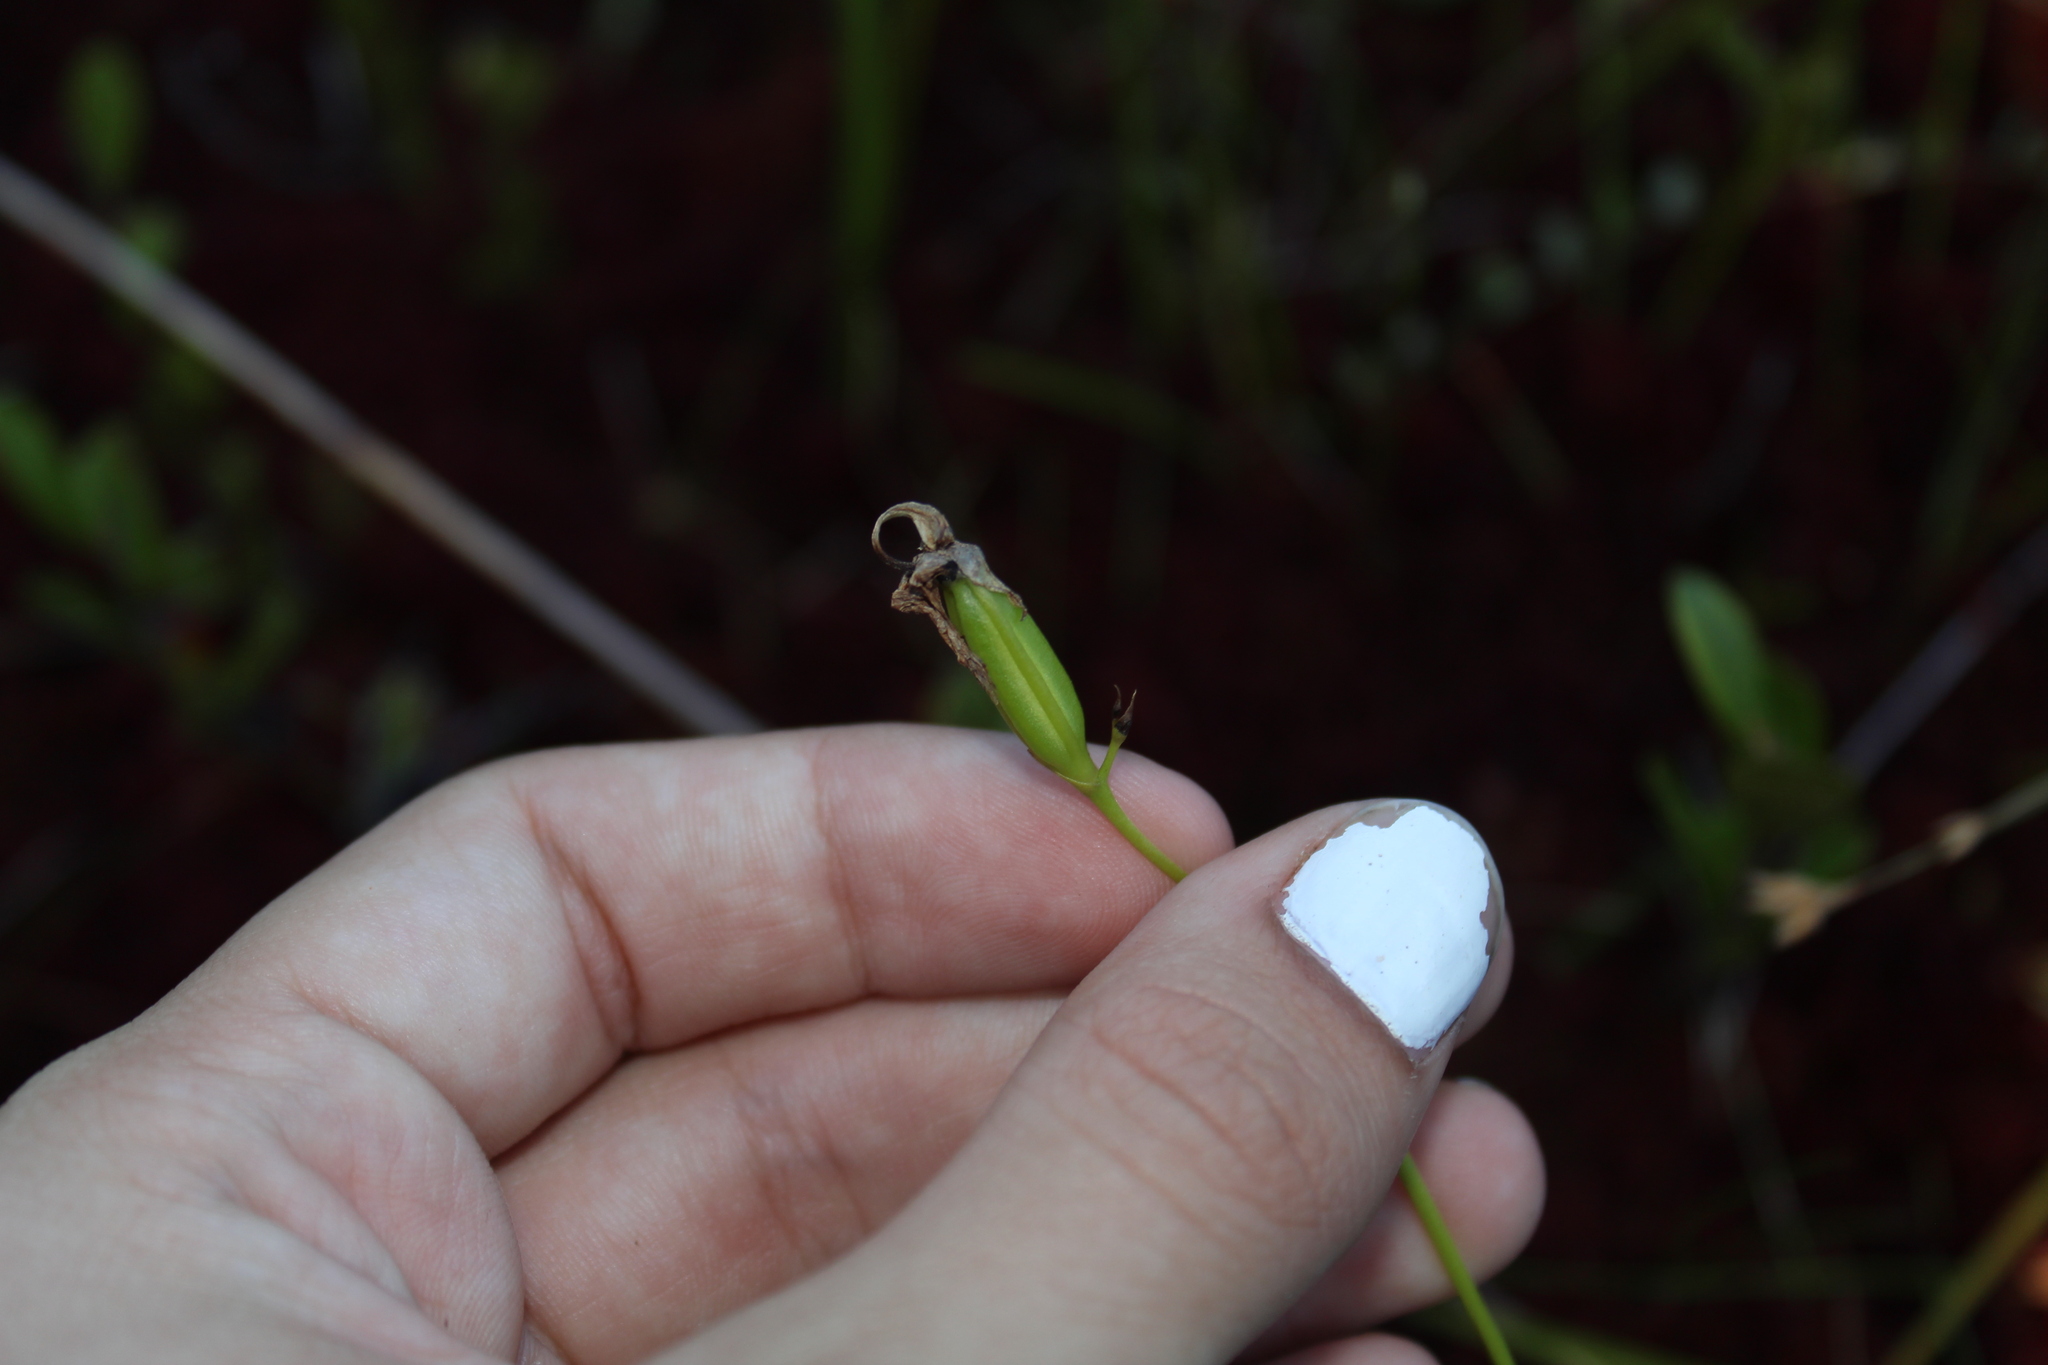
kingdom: Plantae
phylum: Tracheophyta
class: Liliopsida
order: Asparagales
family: Orchidaceae
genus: Pogonia
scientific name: Pogonia ophioglossoides
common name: Rose pogonia
